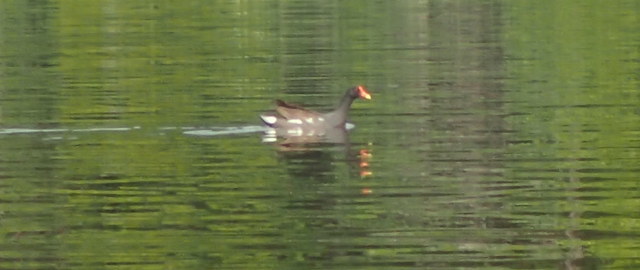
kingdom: Animalia
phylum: Chordata
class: Aves
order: Gruiformes
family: Rallidae
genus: Gallinula
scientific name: Gallinula chloropus
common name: Common moorhen
